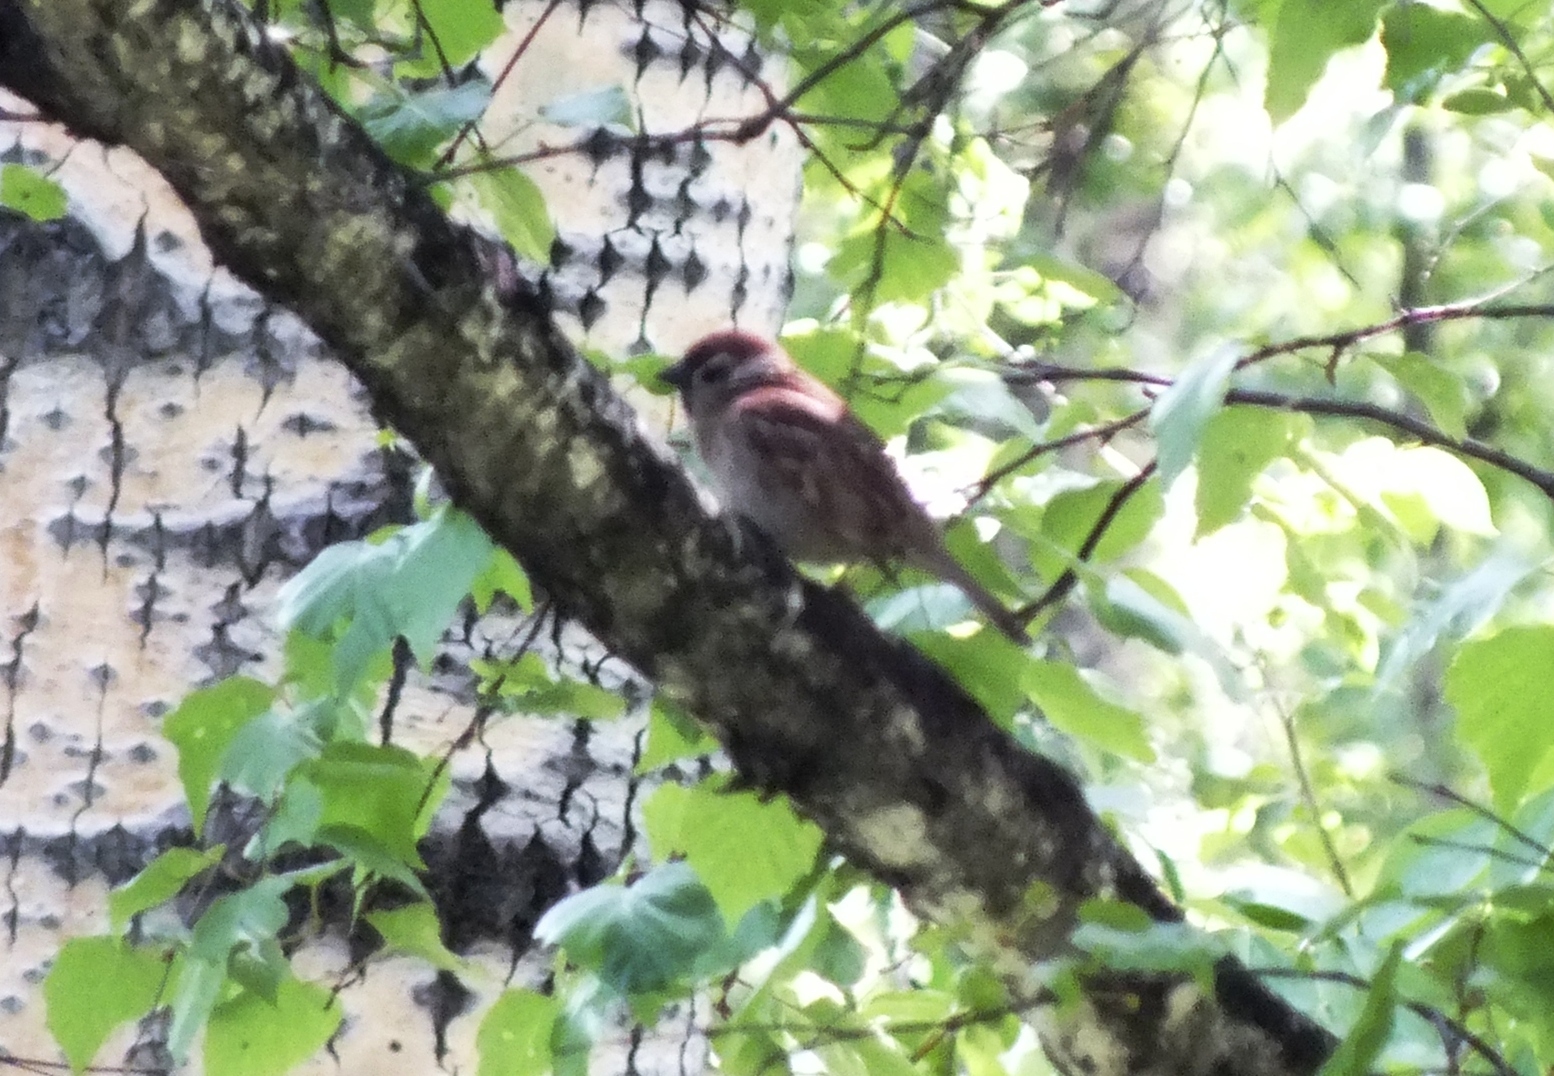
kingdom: Animalia
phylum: Chordata
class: Aves
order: Passeriformes
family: Passeridae
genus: Passer
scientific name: Passer montanus
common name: Eurasian tree sparrow
